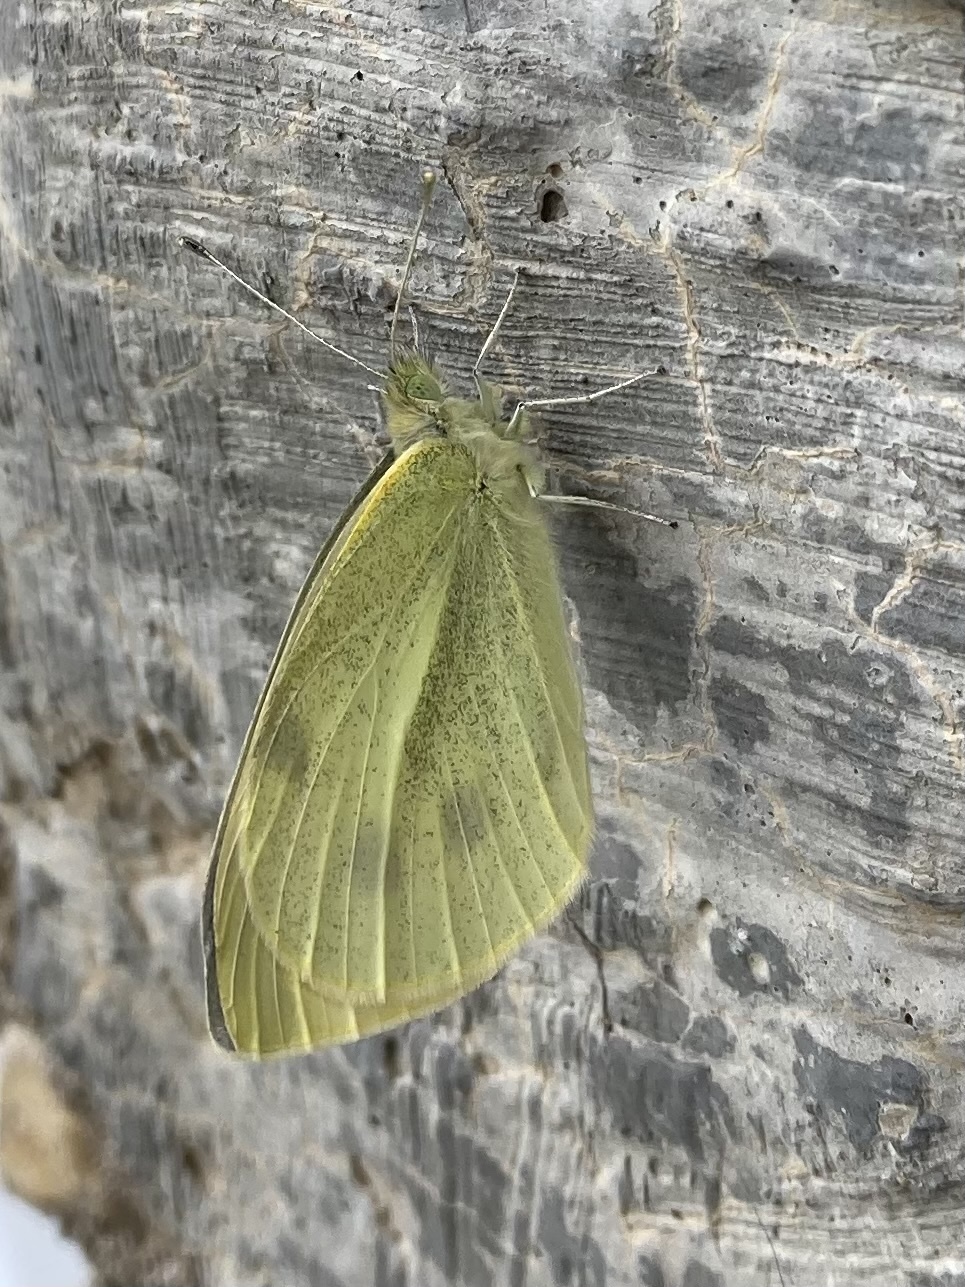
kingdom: Animalia
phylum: Arthropoda
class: Insecta
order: Lepidoptera
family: Pieridae
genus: Pieris
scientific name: Pieris rapae
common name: Small white
